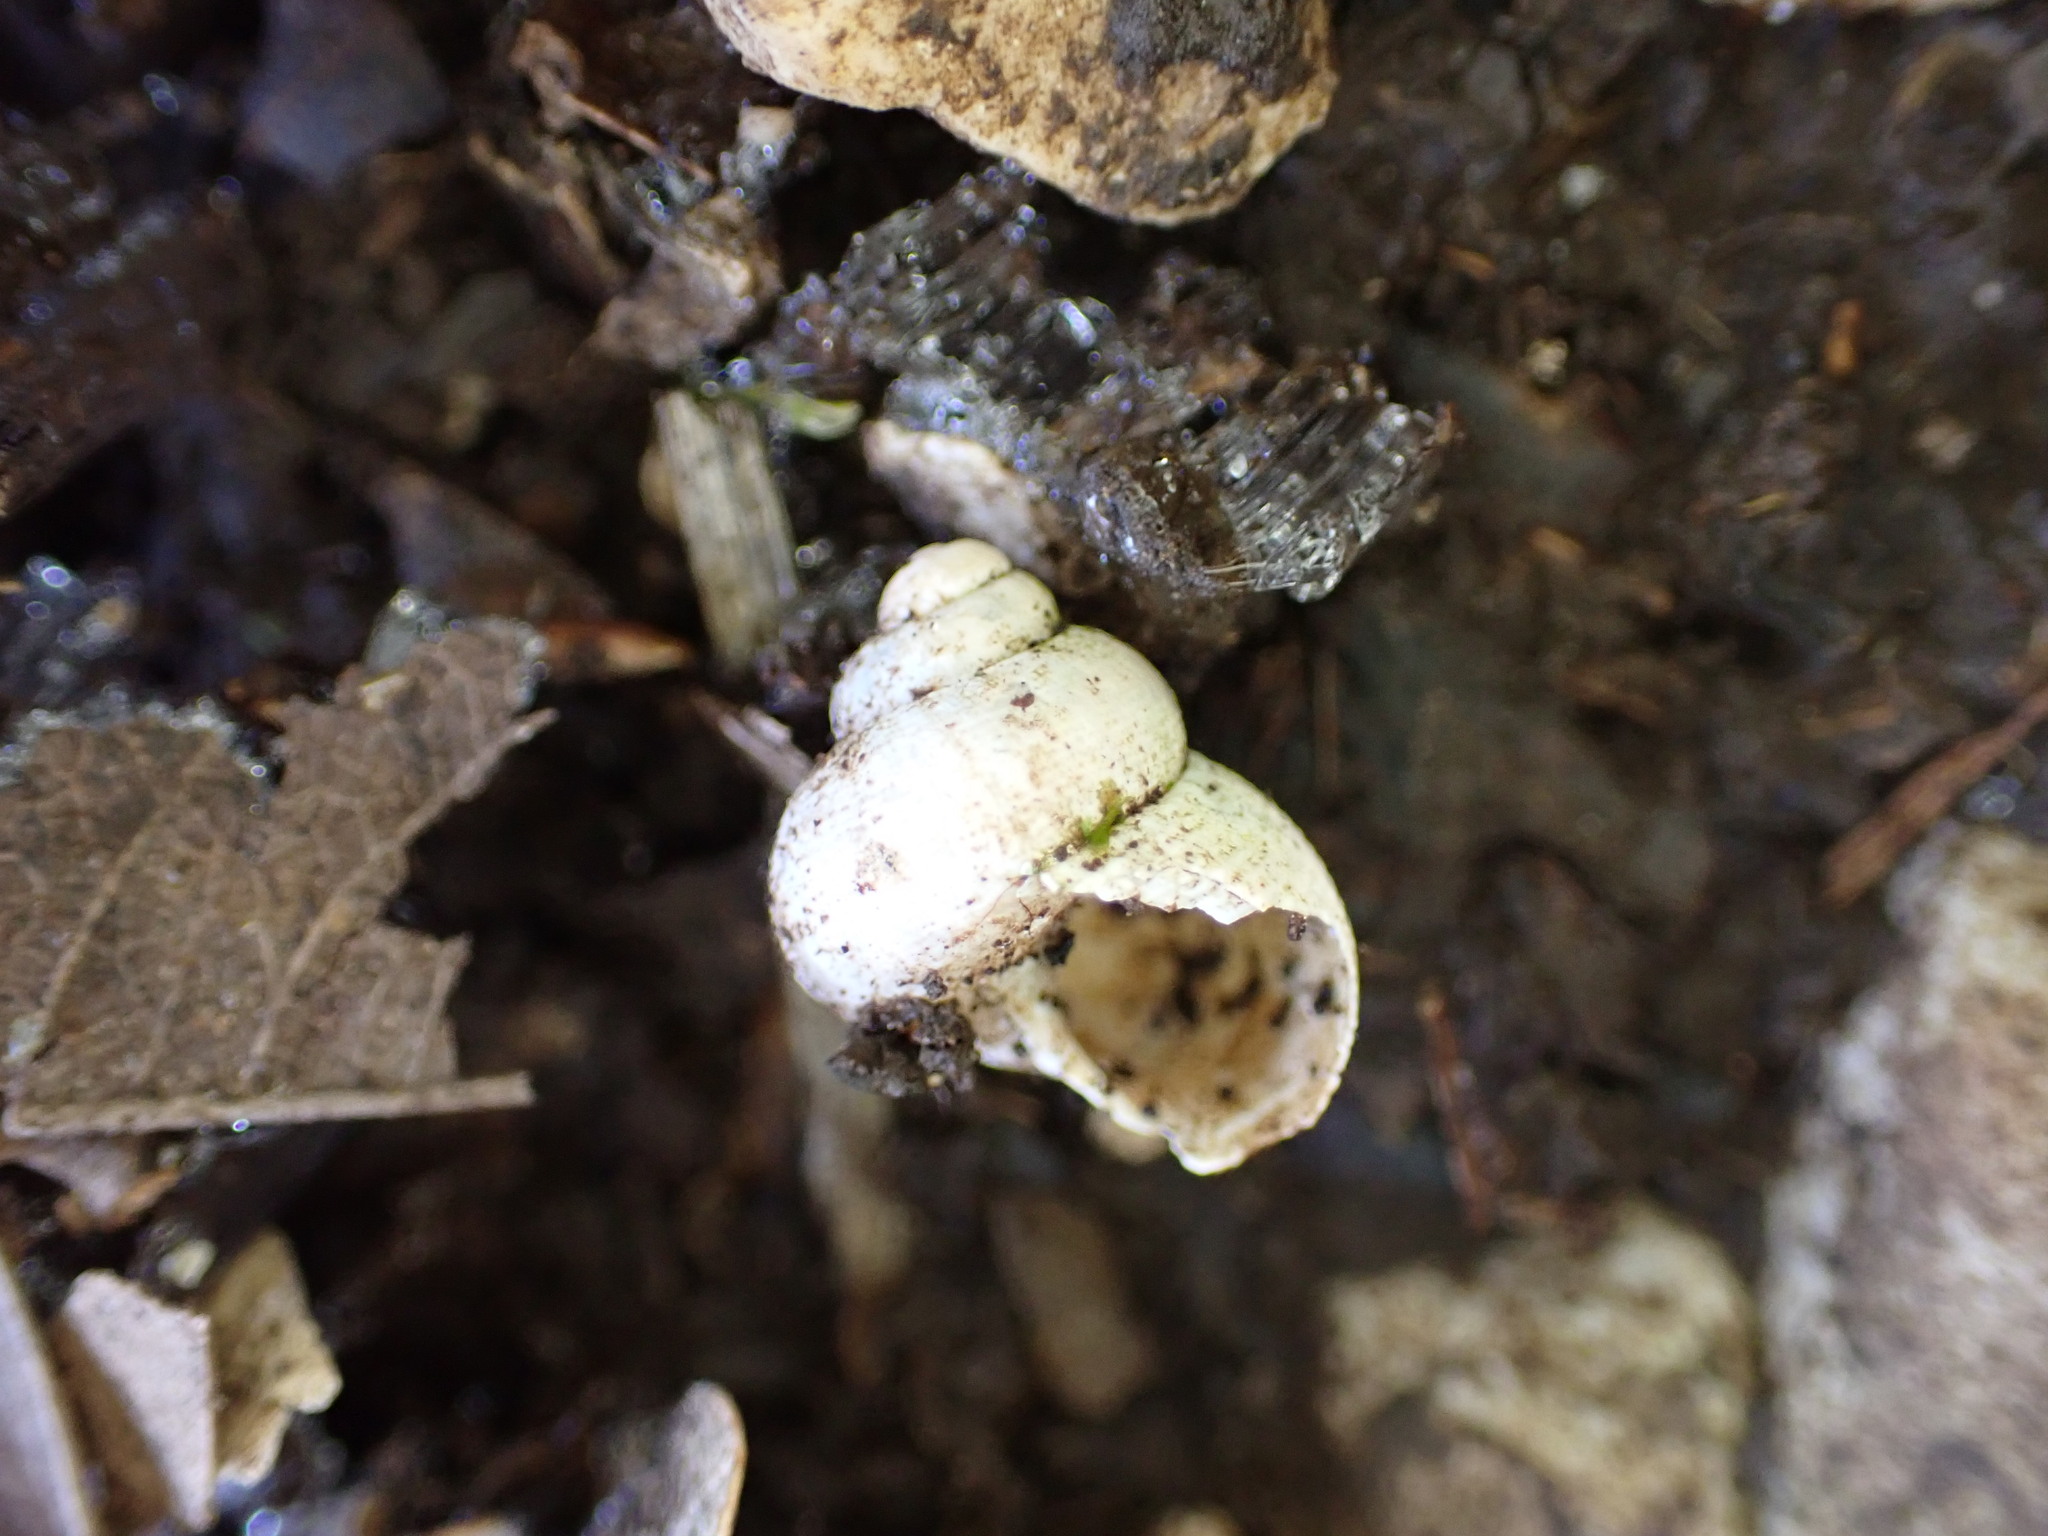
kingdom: Animalia
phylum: Mollusca
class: Gastropoda
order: Littorinimorpha
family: Pomatiidae
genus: Pomatias
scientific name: Pomatias elegans
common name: Red-mouthed snail
